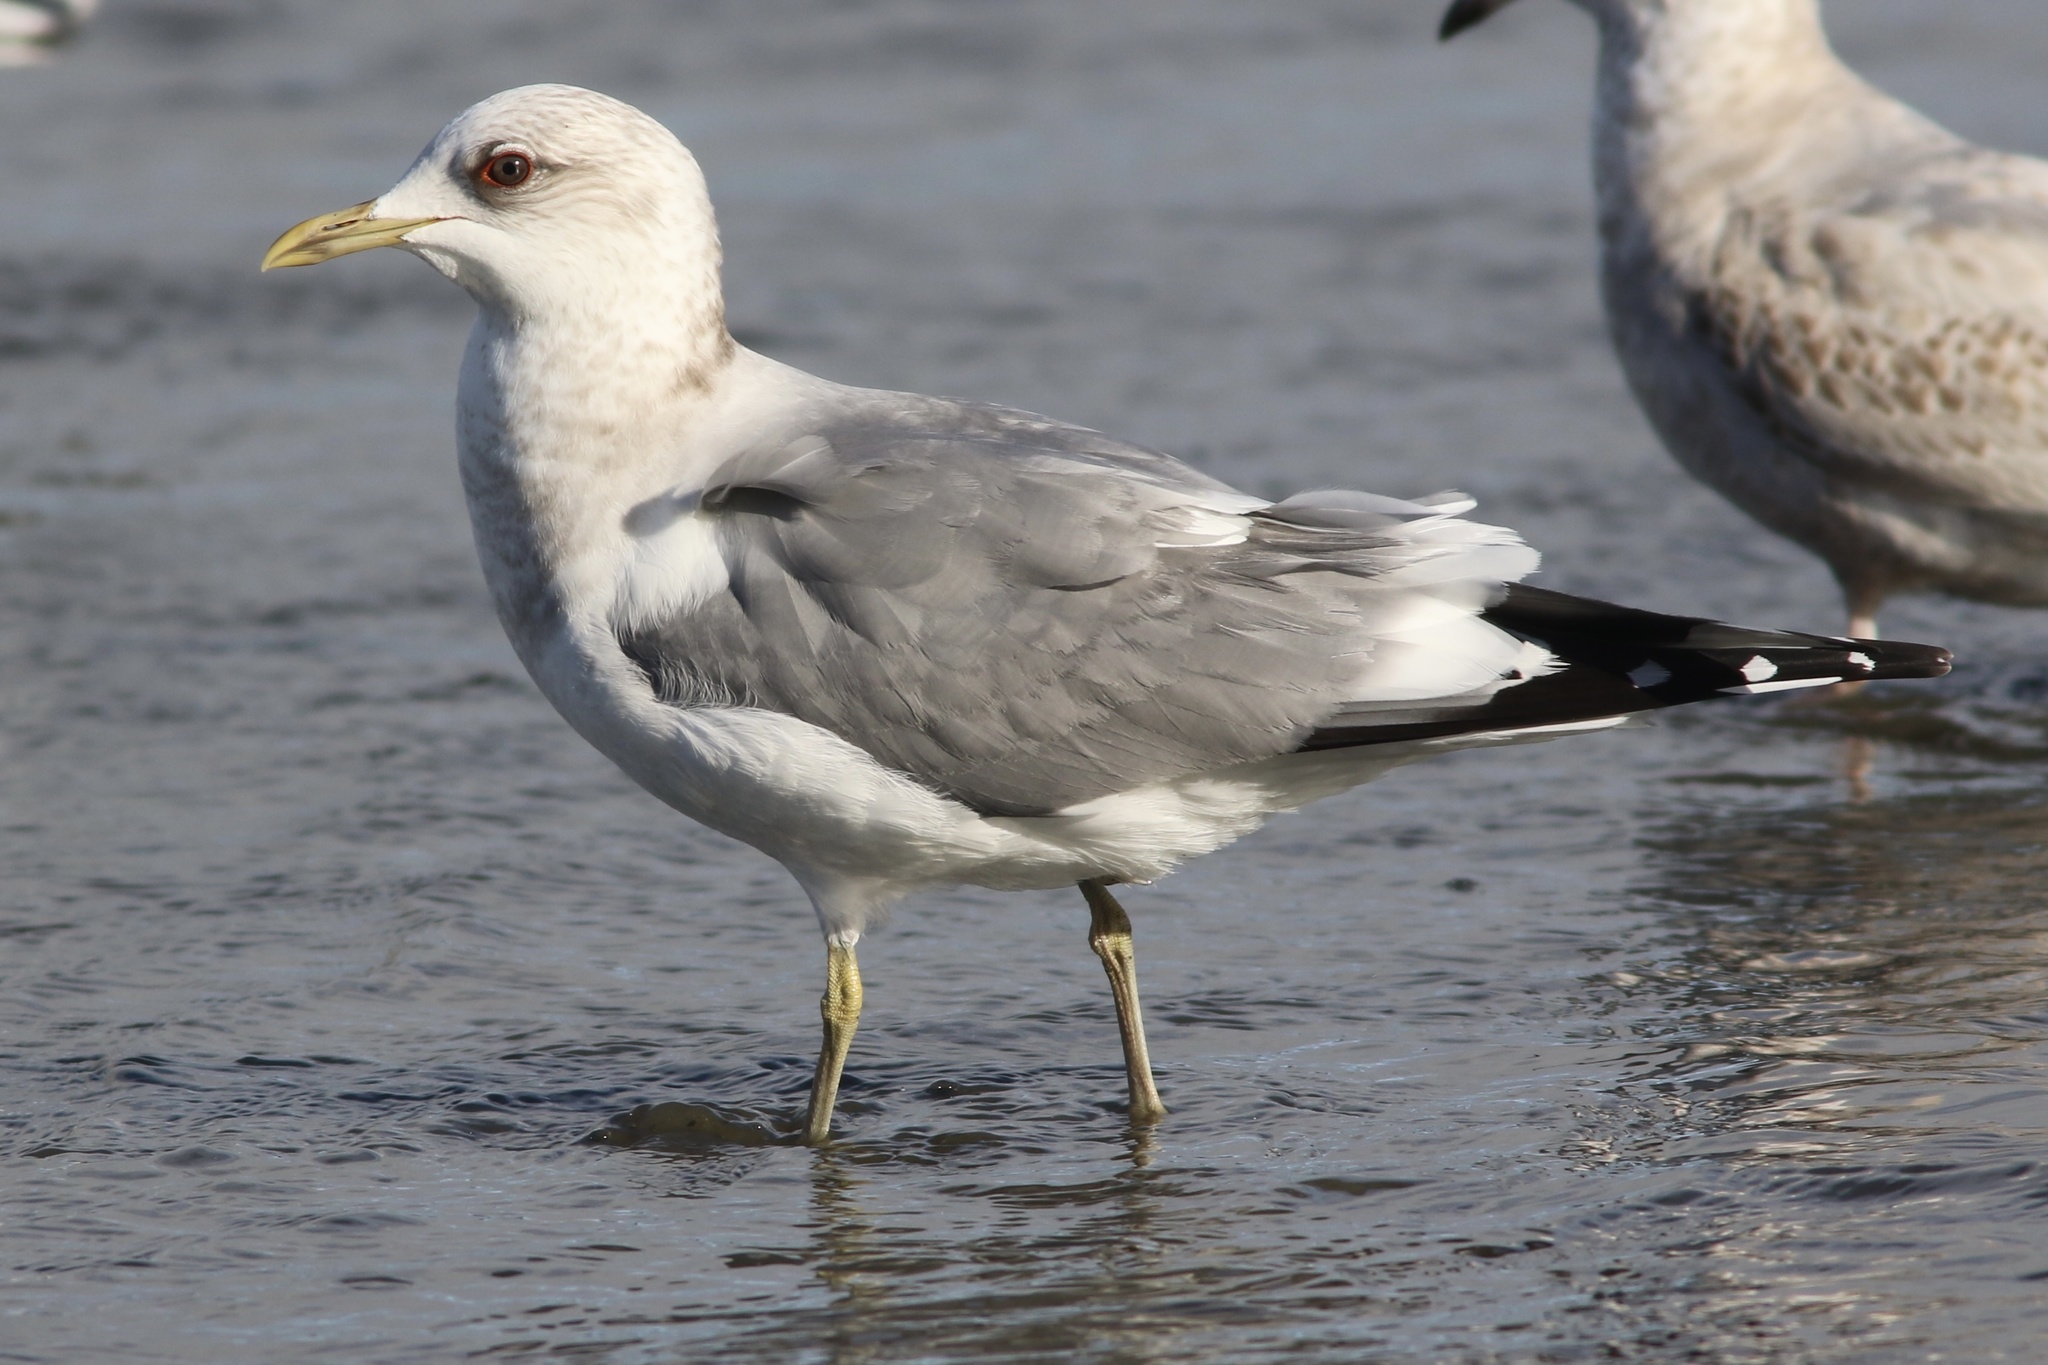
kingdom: Animalia
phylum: Chordata
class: Aves
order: Charadriiformes
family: Laridae
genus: Larus
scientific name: Larus brachyrhynchus
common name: Short-billed gull
